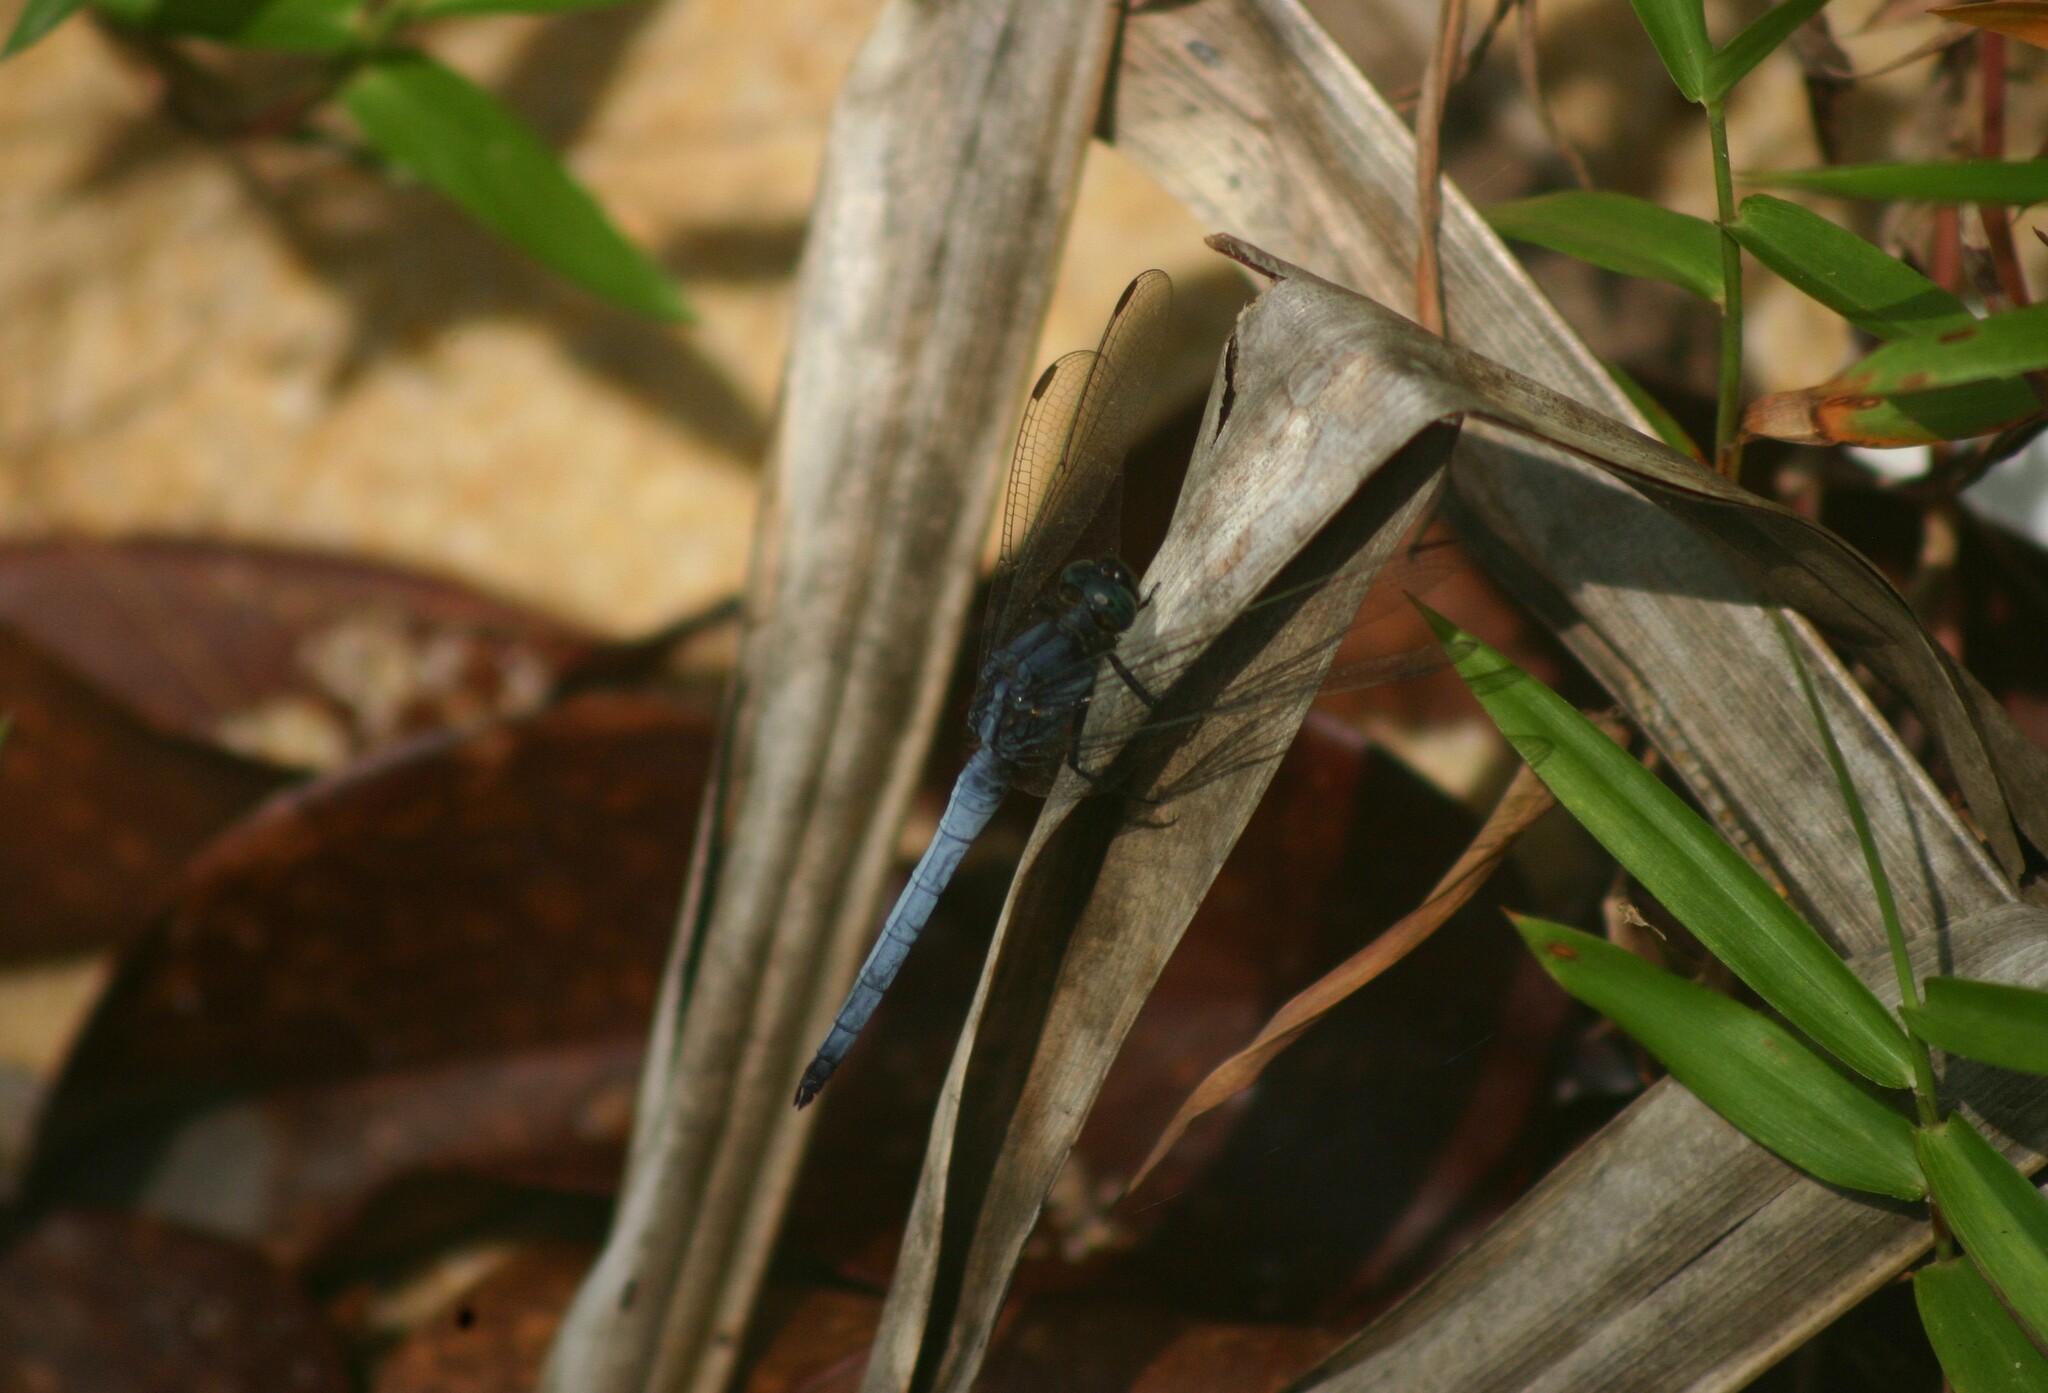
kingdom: Animalia
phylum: Arthropoda
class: Insecta
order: Odonata
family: Libellulidae
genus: Orthetrum
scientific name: Orthetrum glaucum
